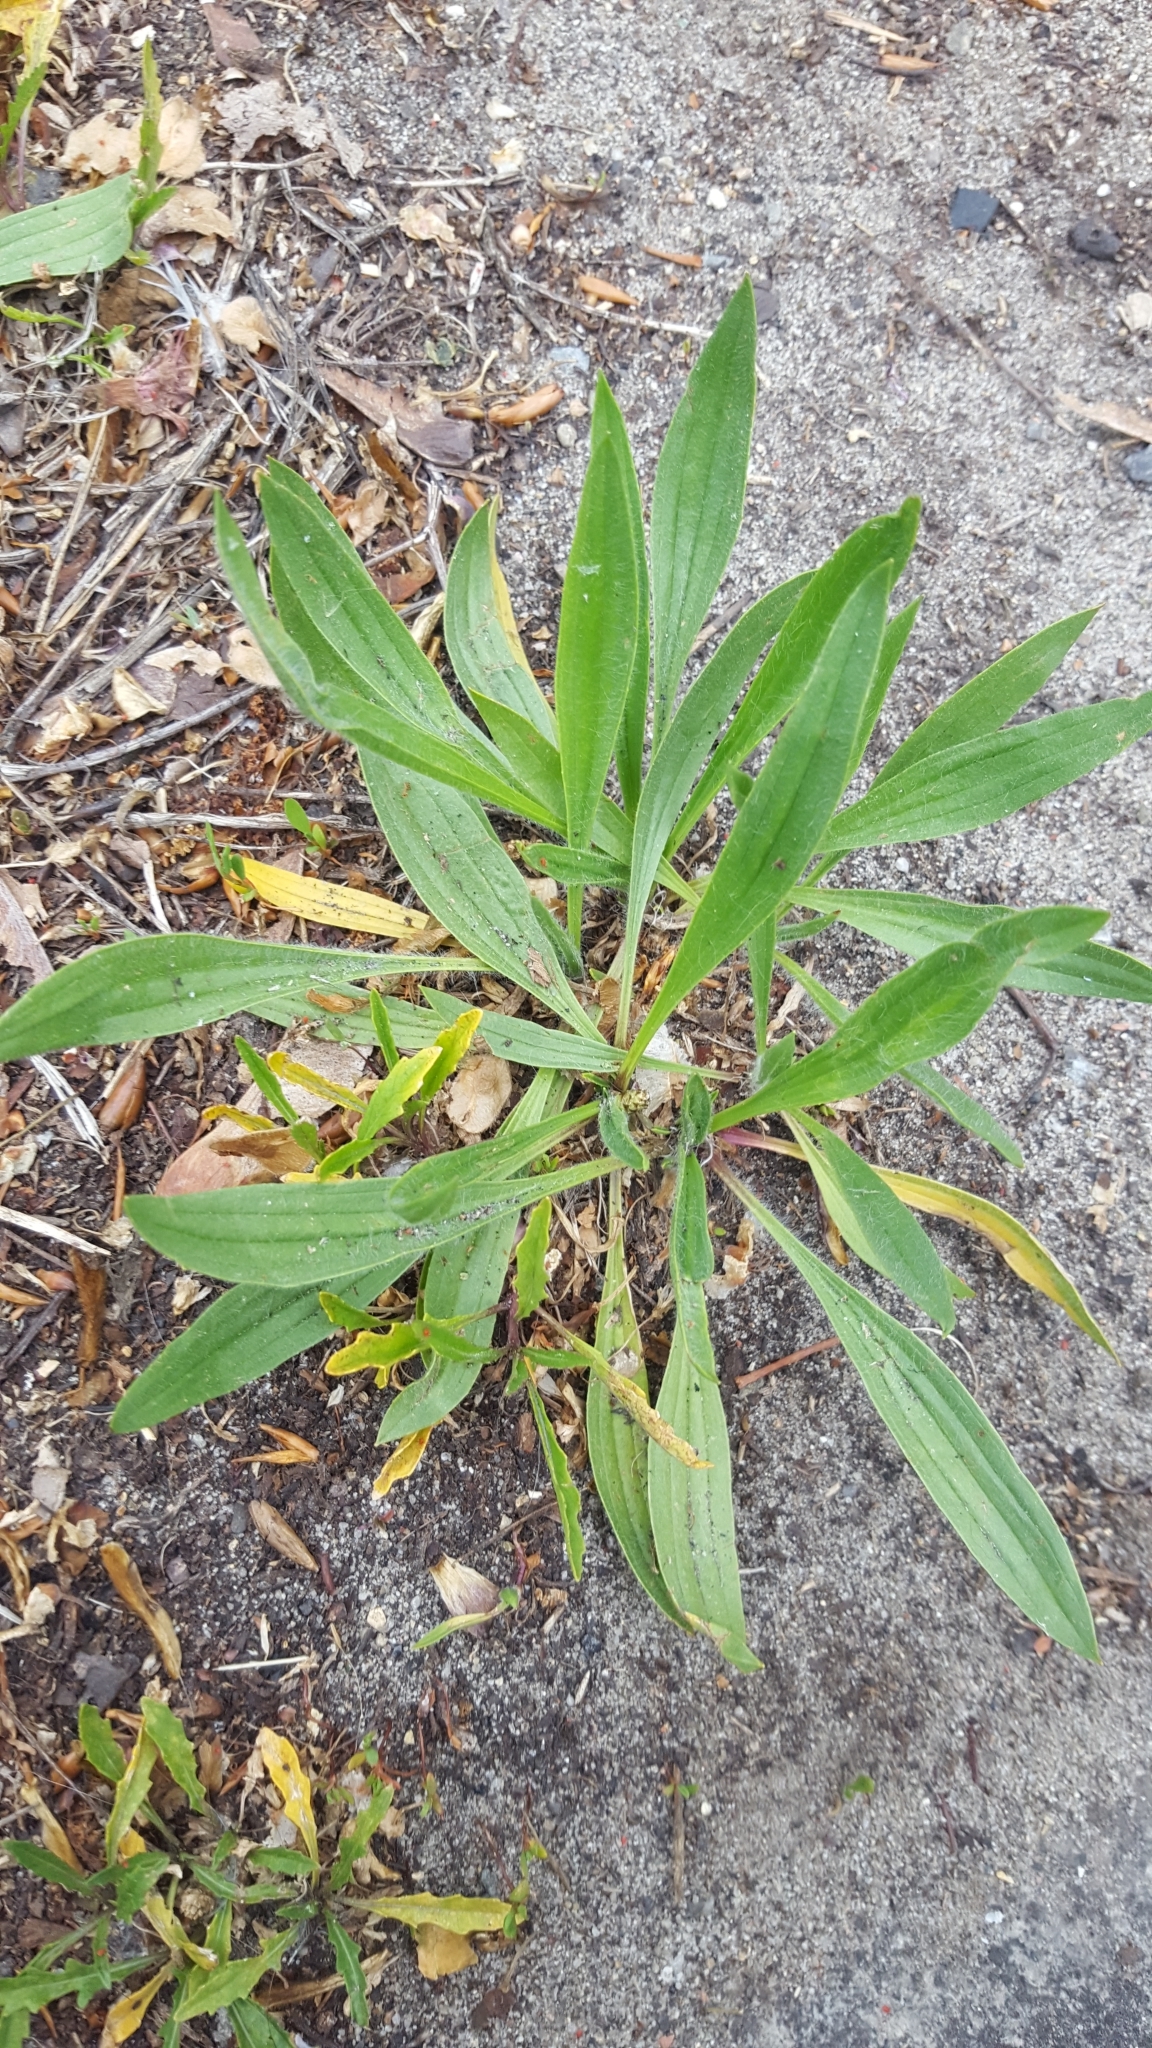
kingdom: Plantae
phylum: Tracheophyta
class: Magnoliopsida
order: Lamiales
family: Plantaginaceae
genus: Plantago
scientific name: Plantago lanceolata
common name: Ribwort plantain
